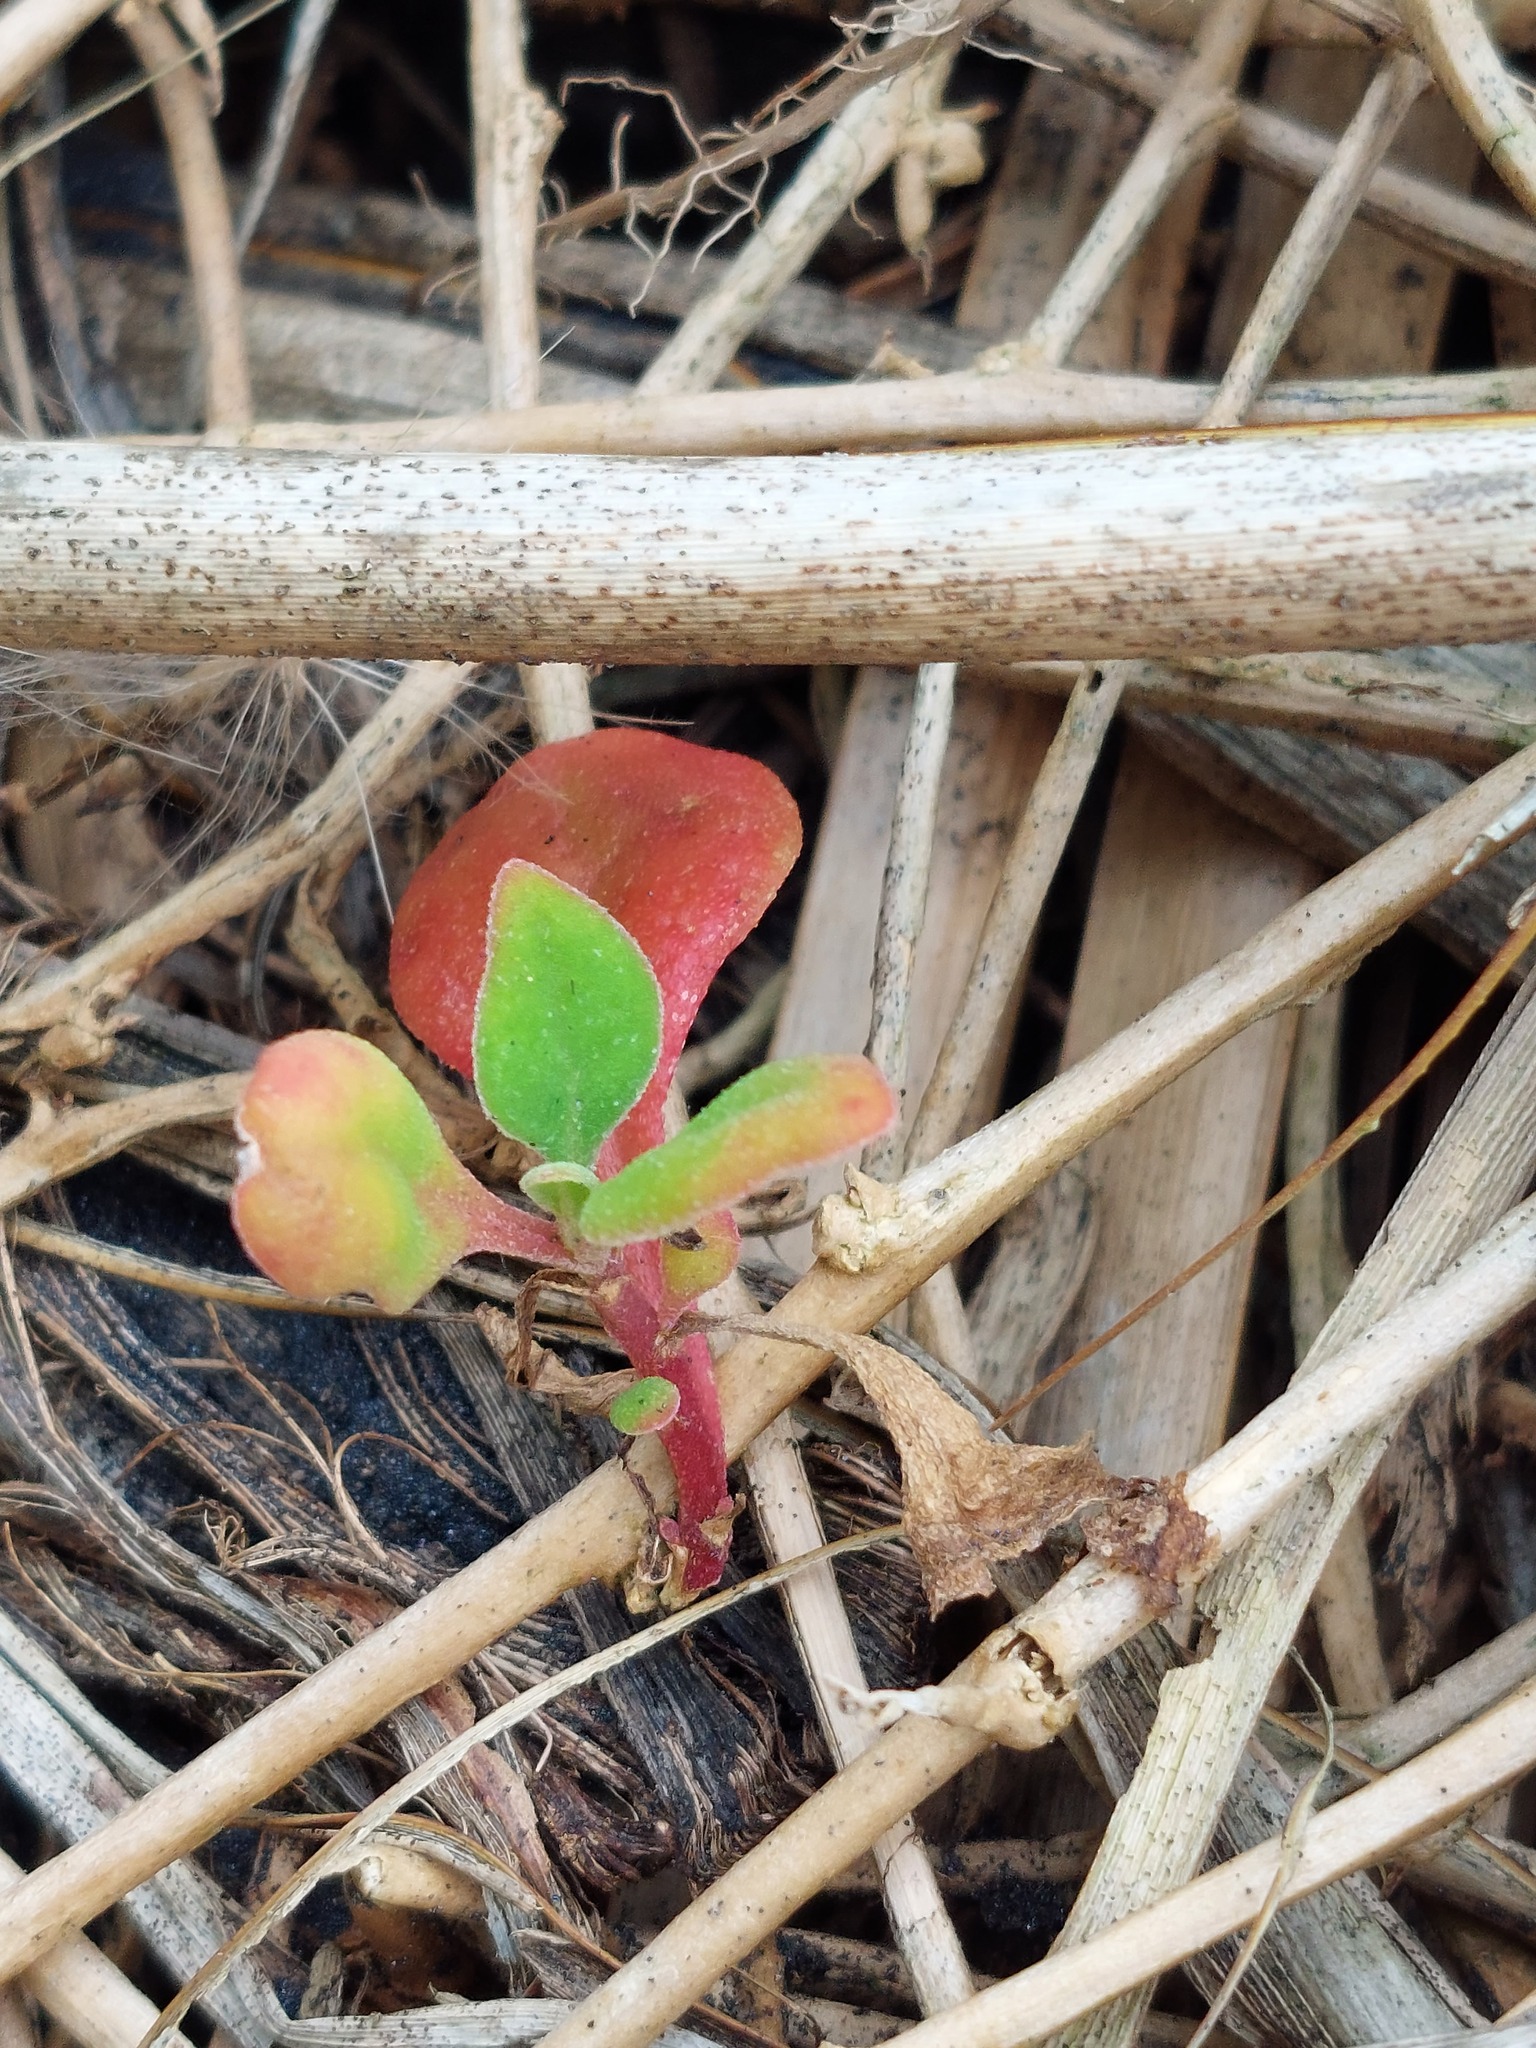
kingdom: Plantae
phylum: Tracheophyta
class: Magnoliopsida
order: Caryophyllales
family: Aizoaceae
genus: Tetragonia
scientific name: Tetragonia implexicoma
